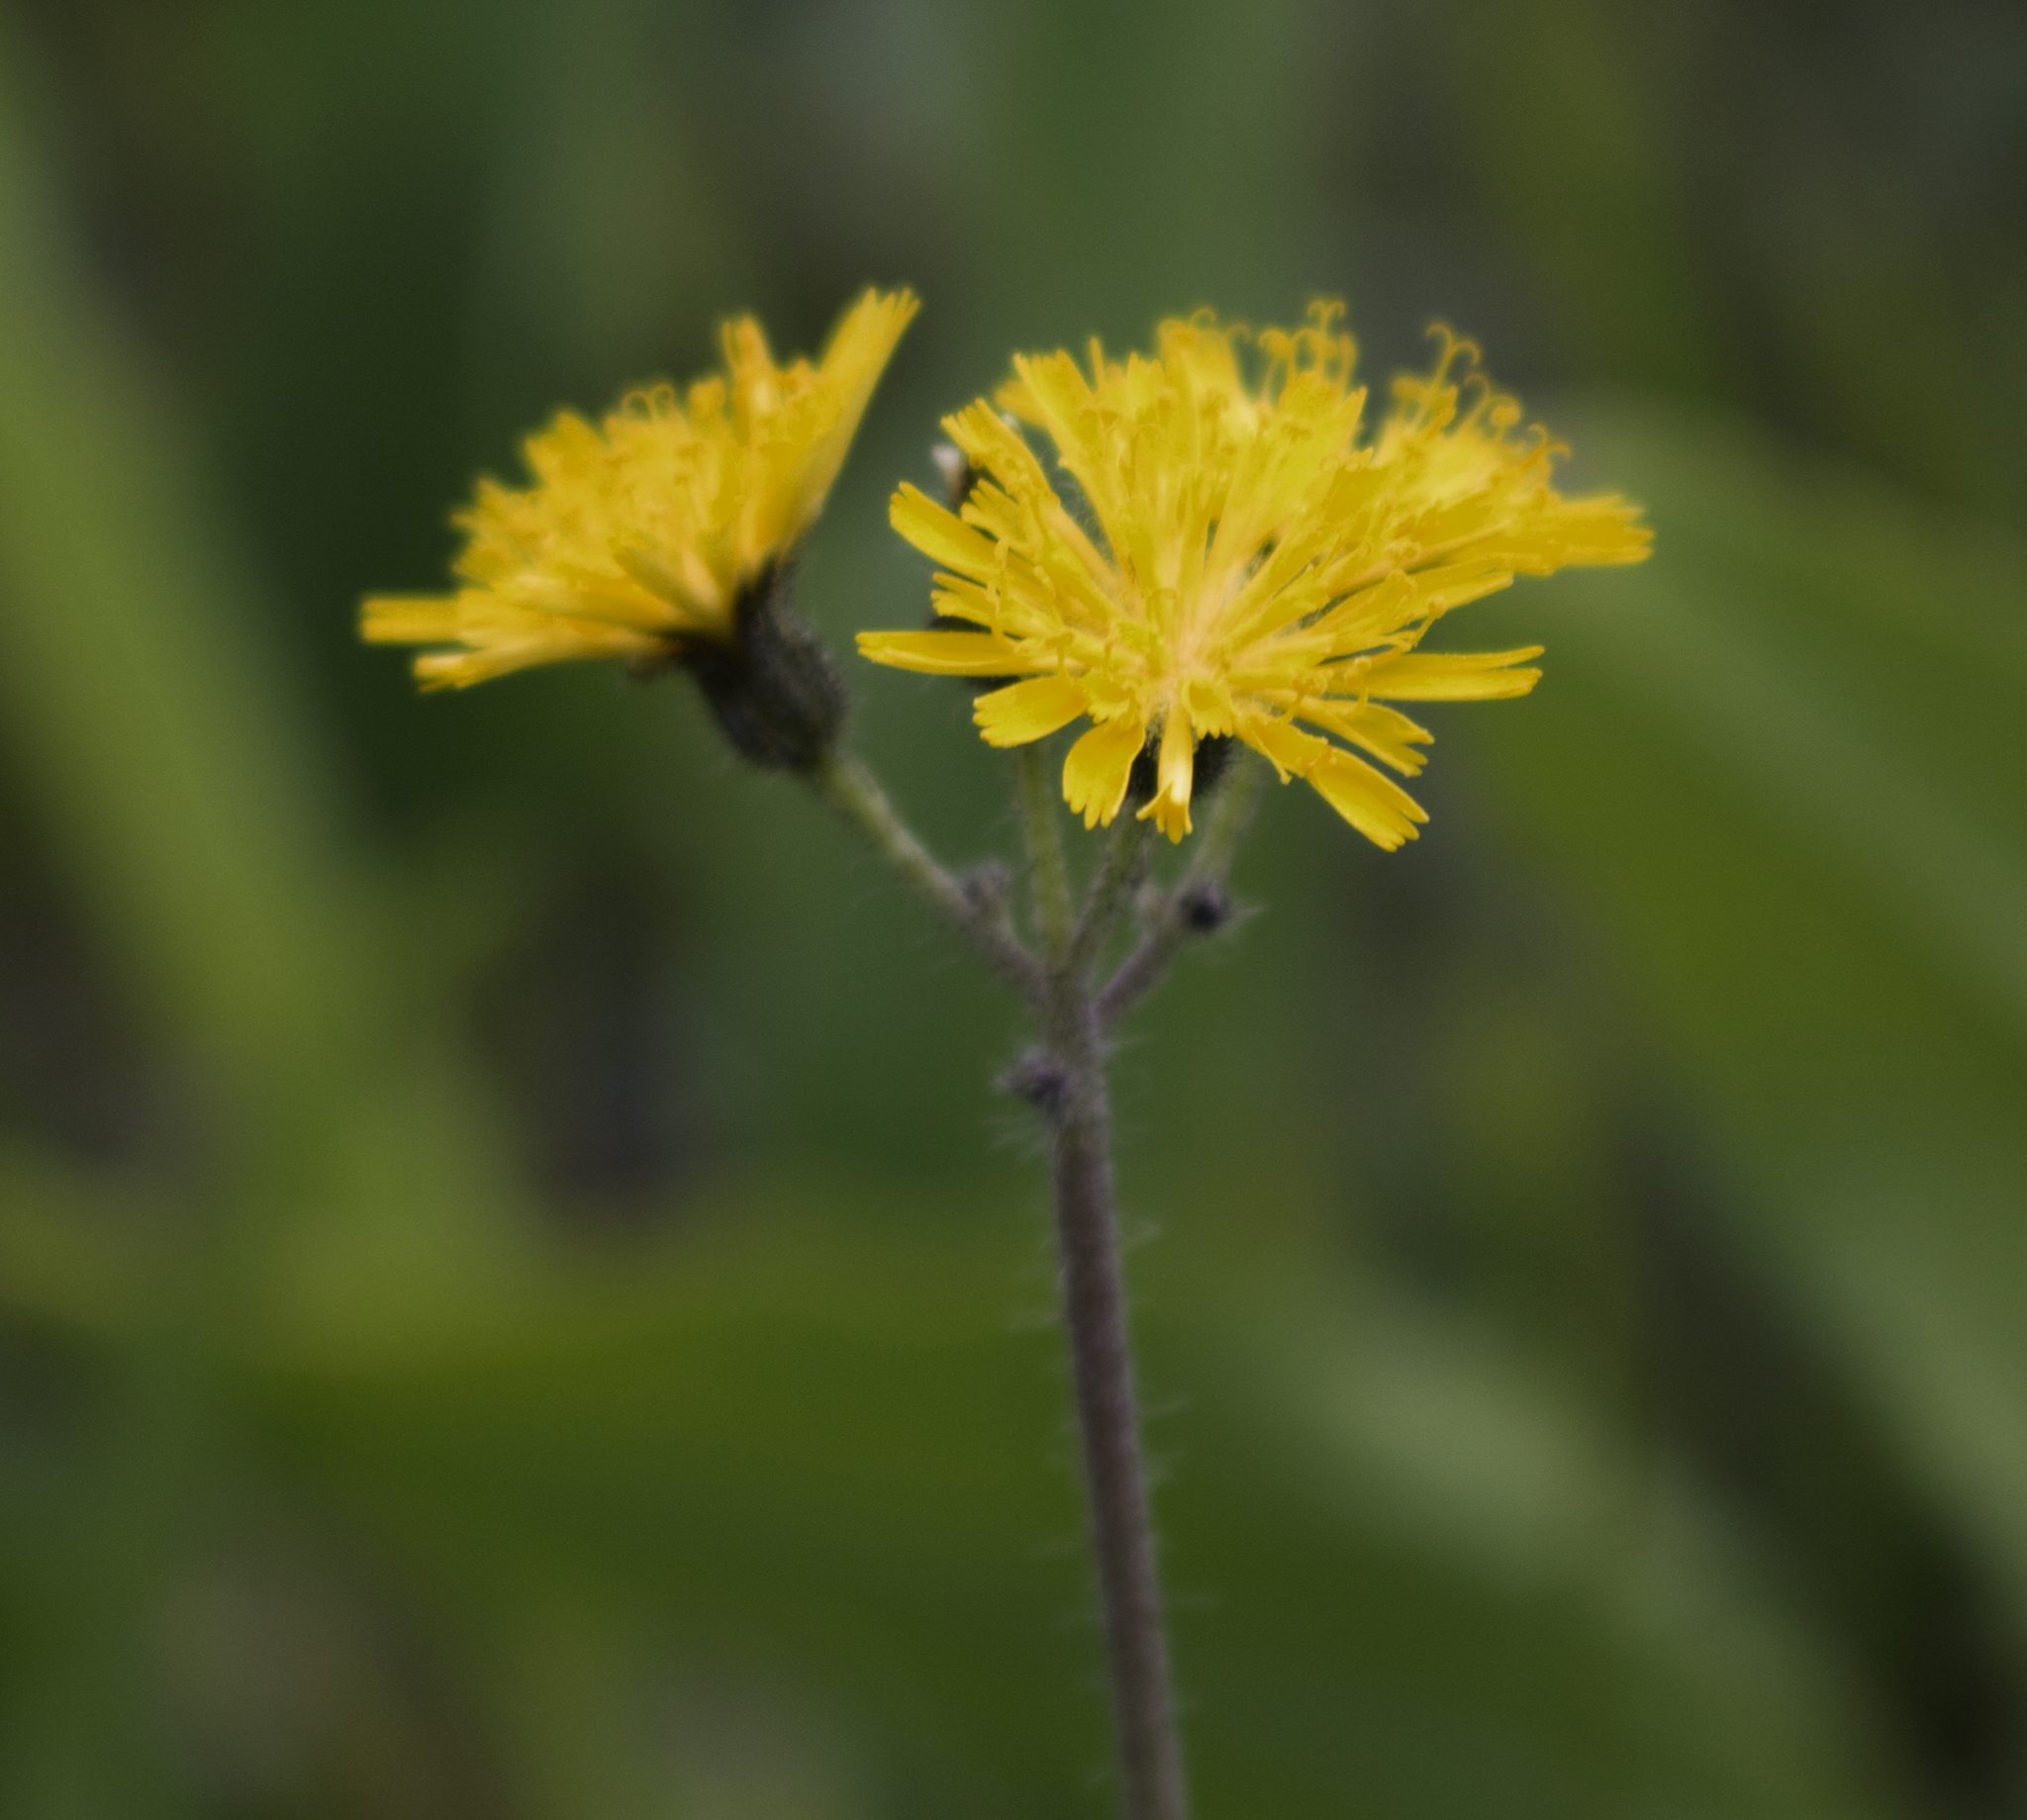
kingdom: Plantae
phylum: Tracheophyta
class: Magnoliopsida
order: Asterales
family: Asteraceae
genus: Pilosella
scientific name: Pilosella caespitosa
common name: Yellow fox-and-cubs
